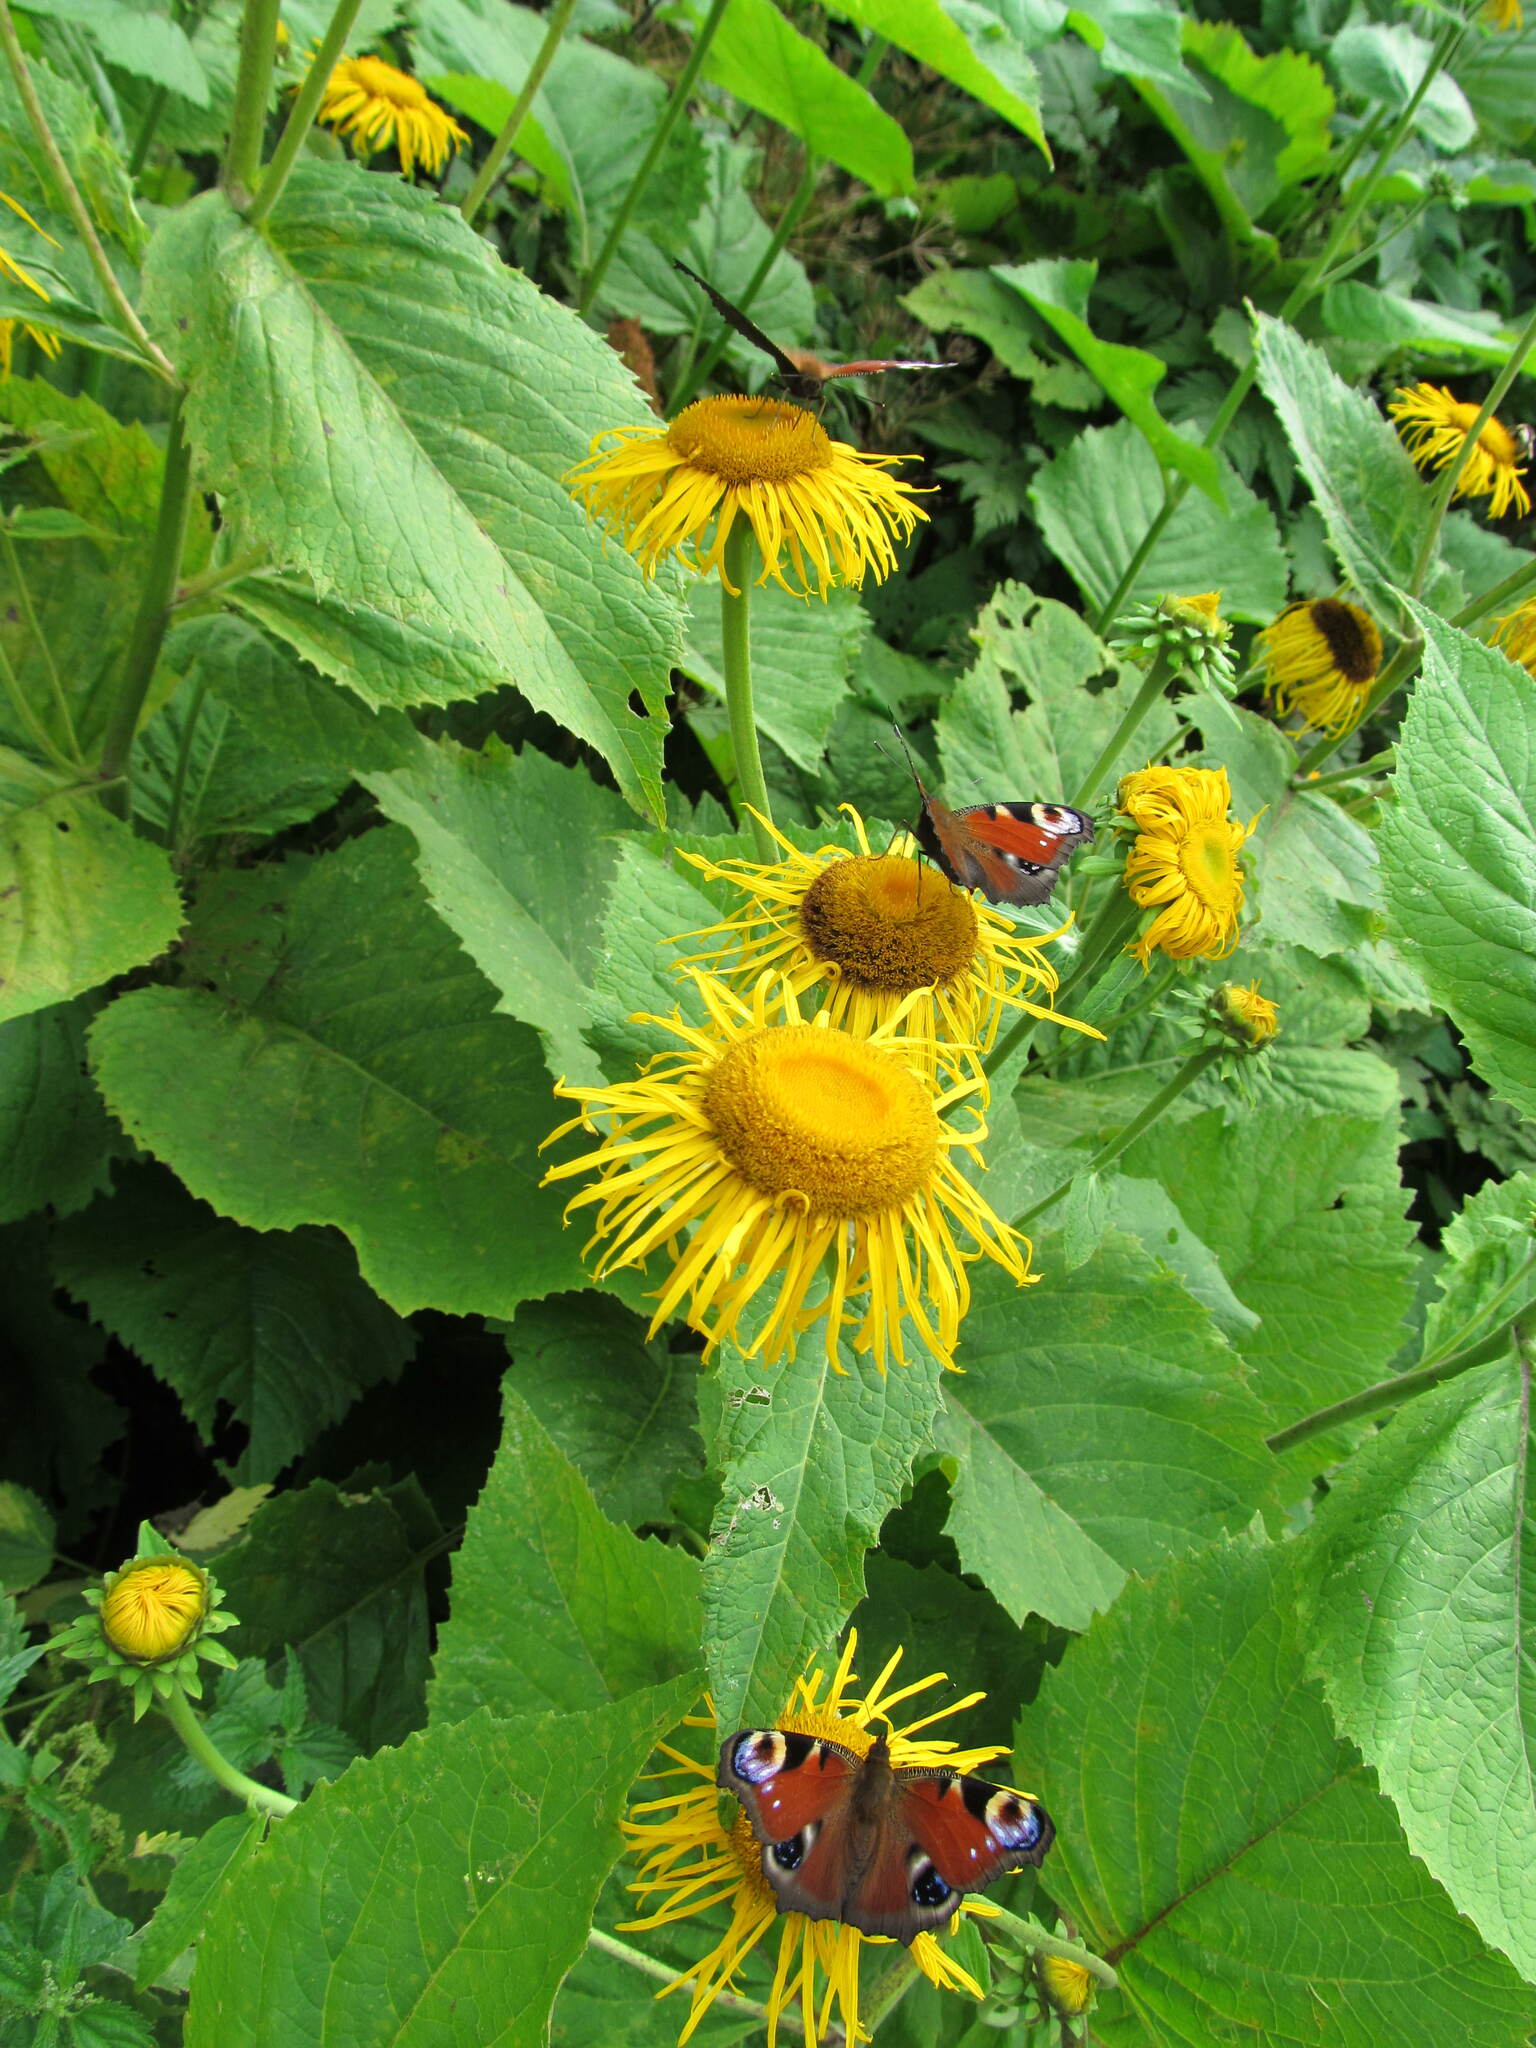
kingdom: Plantae
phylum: Tracheophyta
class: Magnoliopsida
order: Asterales
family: Asteraceae
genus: Telekia
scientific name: Telekia speciosa
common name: Yellow oxeye
